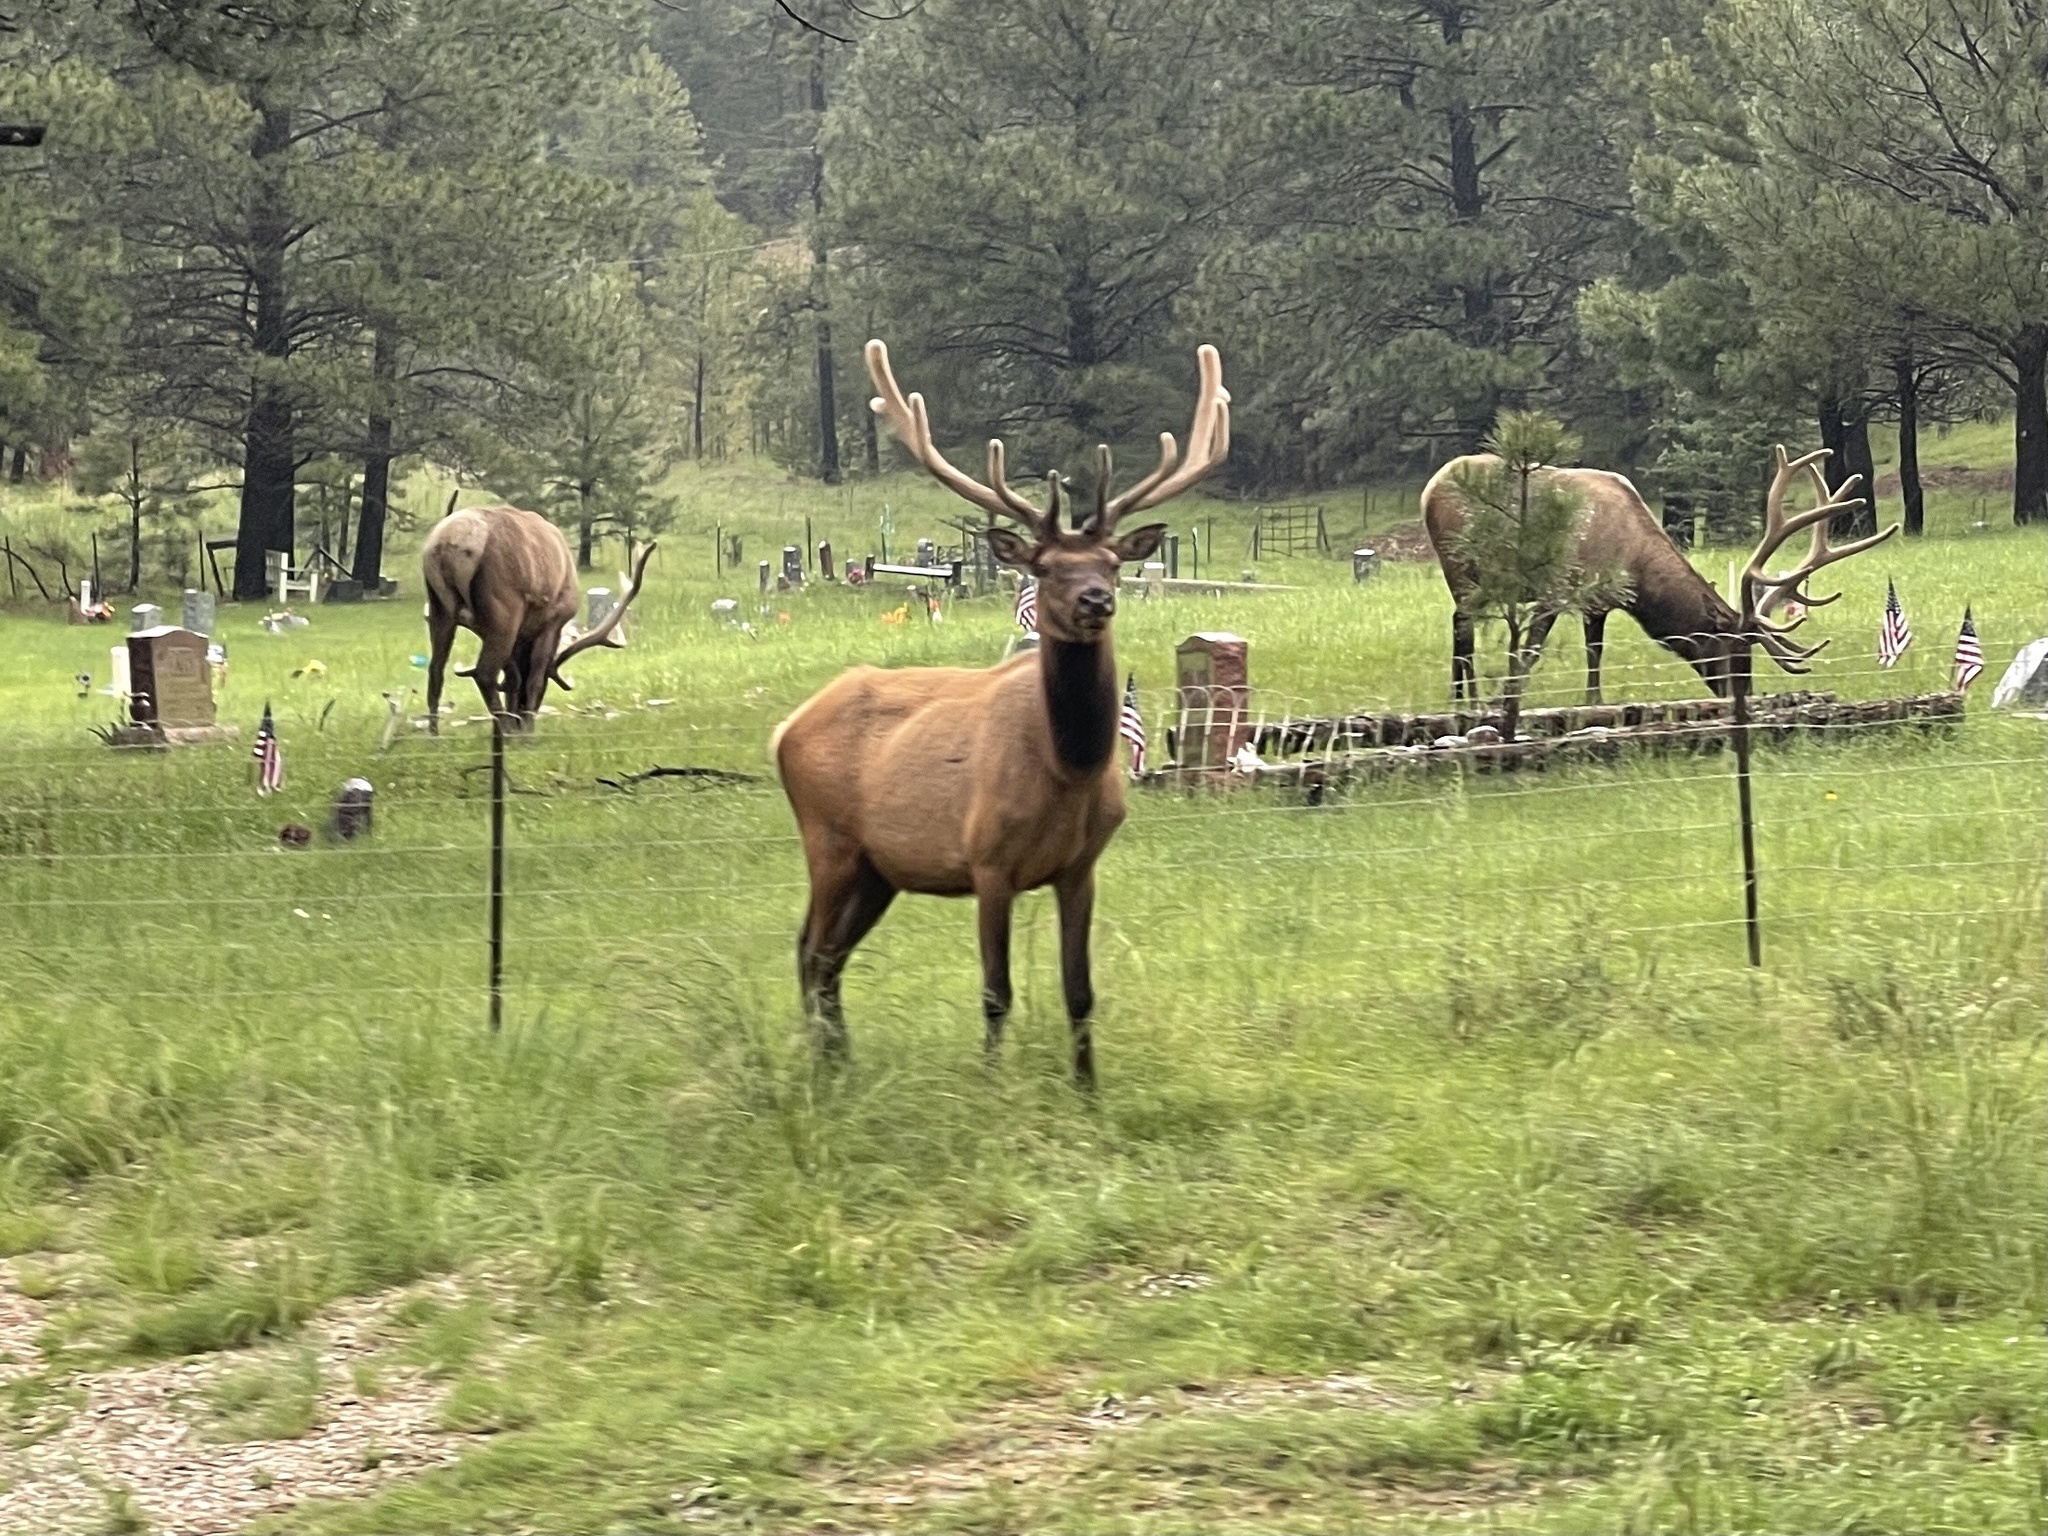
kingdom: Animalia
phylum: Chordata
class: Mammalia
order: Artiodactyla
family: Cervidae
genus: Cervus
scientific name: Cervus elaphus
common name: Red deer
